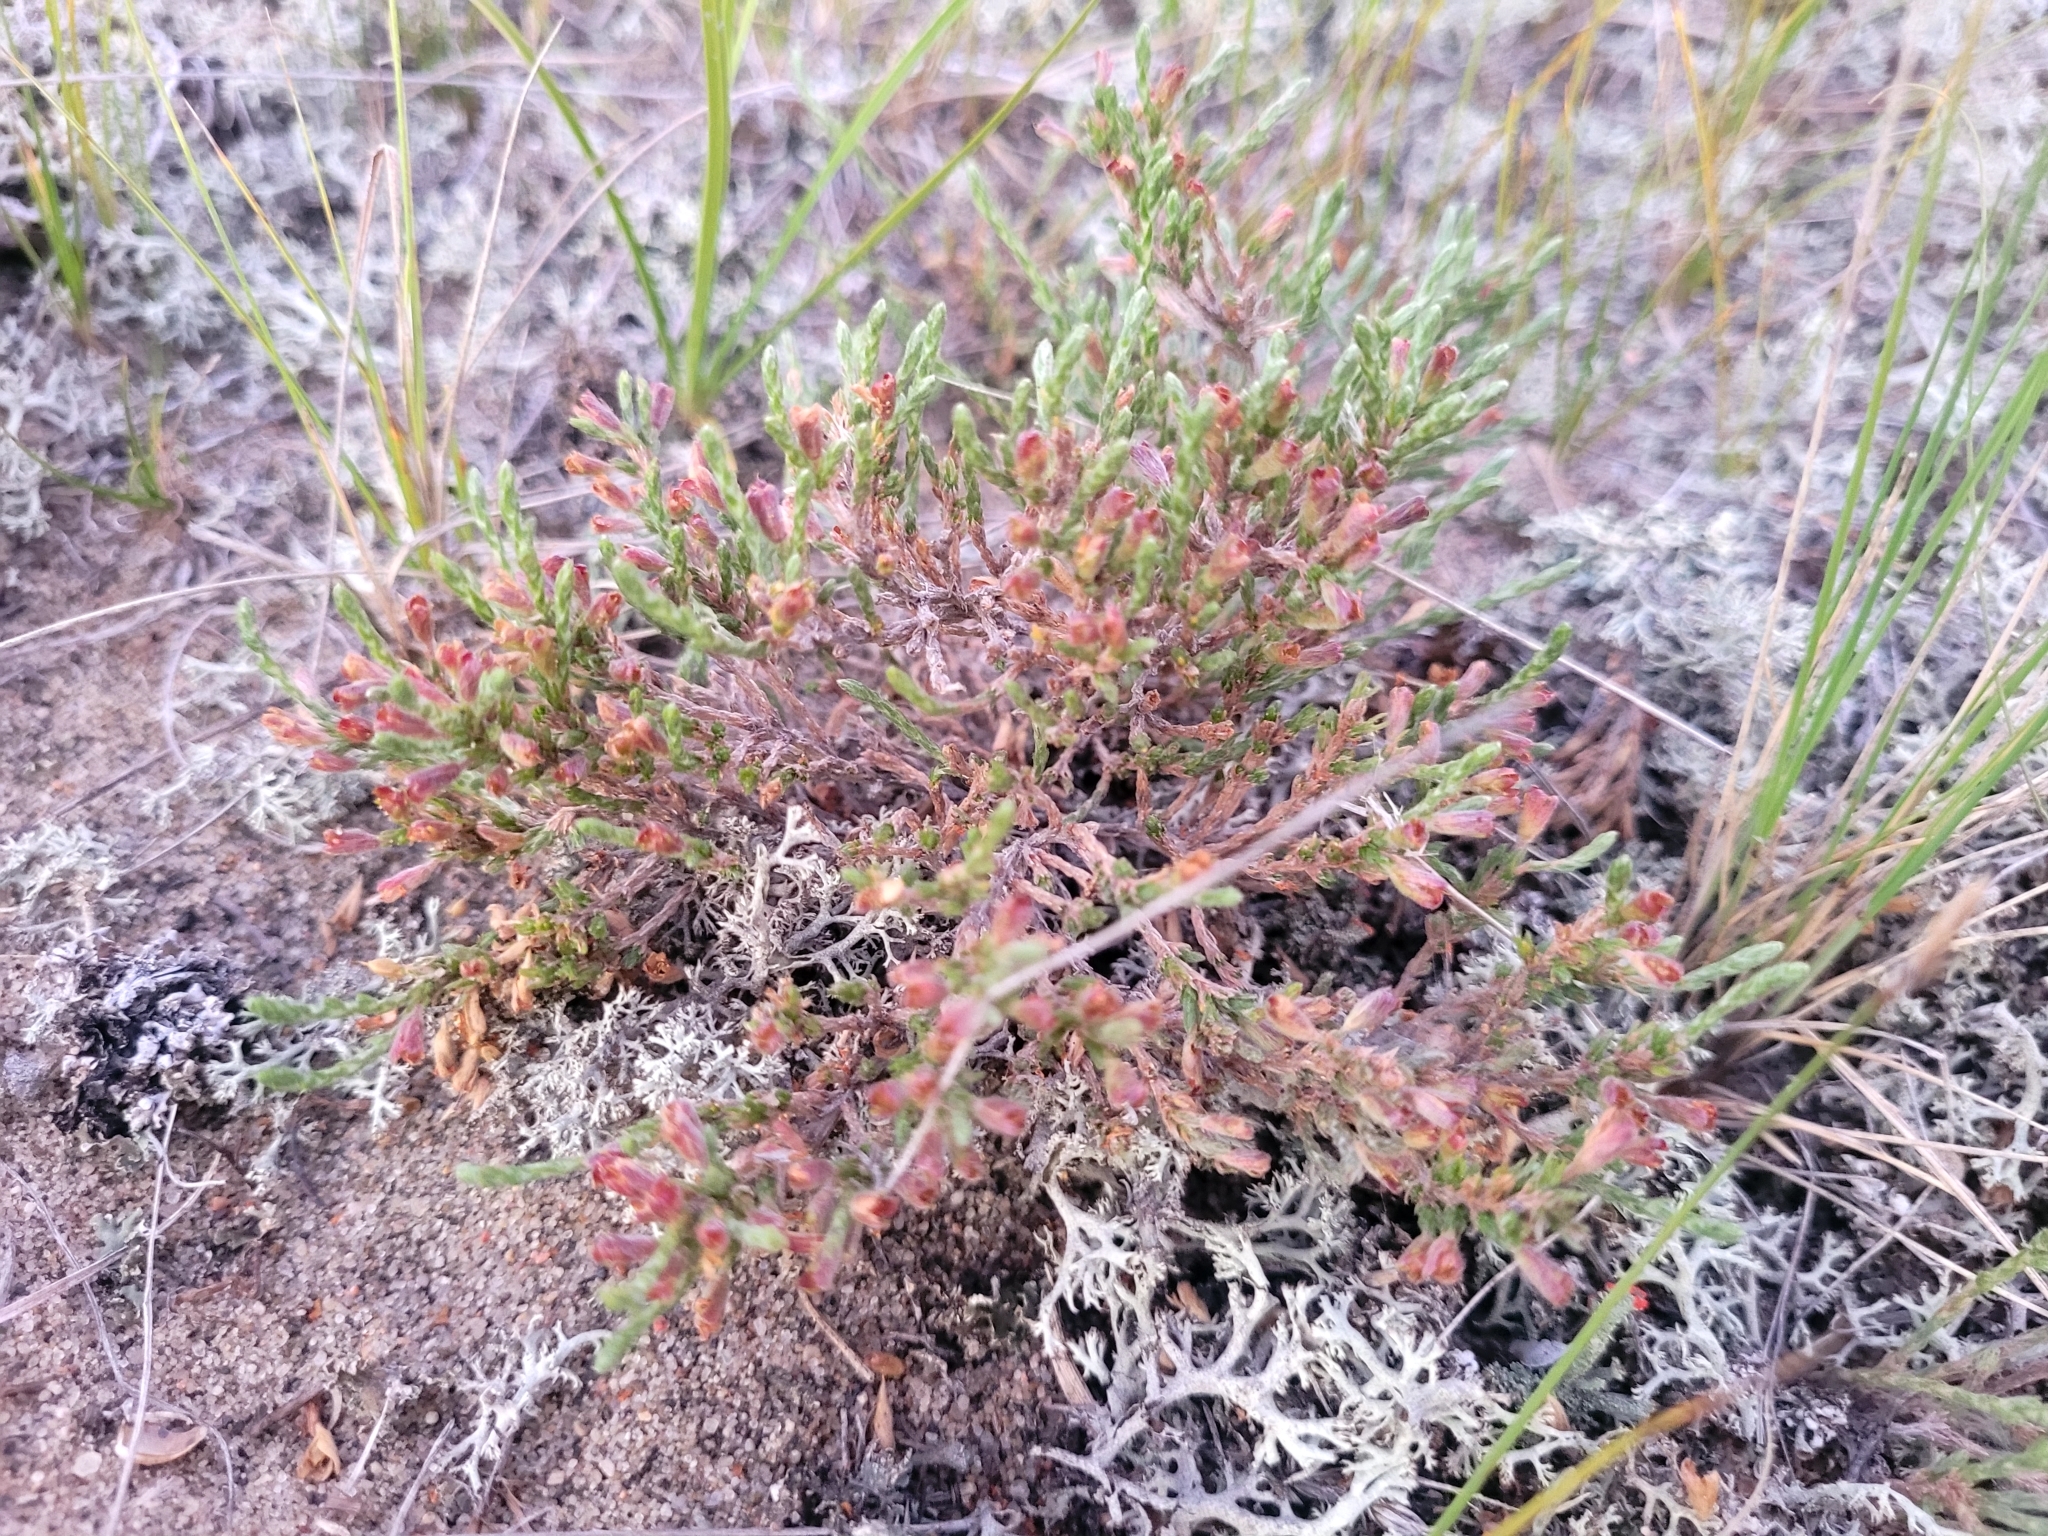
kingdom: Plantae
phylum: Tracheophyta
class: Magnoliopsida
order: Malvales
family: Cistaceae
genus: Hudsonia
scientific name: Hudsonia tomentosa
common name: Beach-heath
